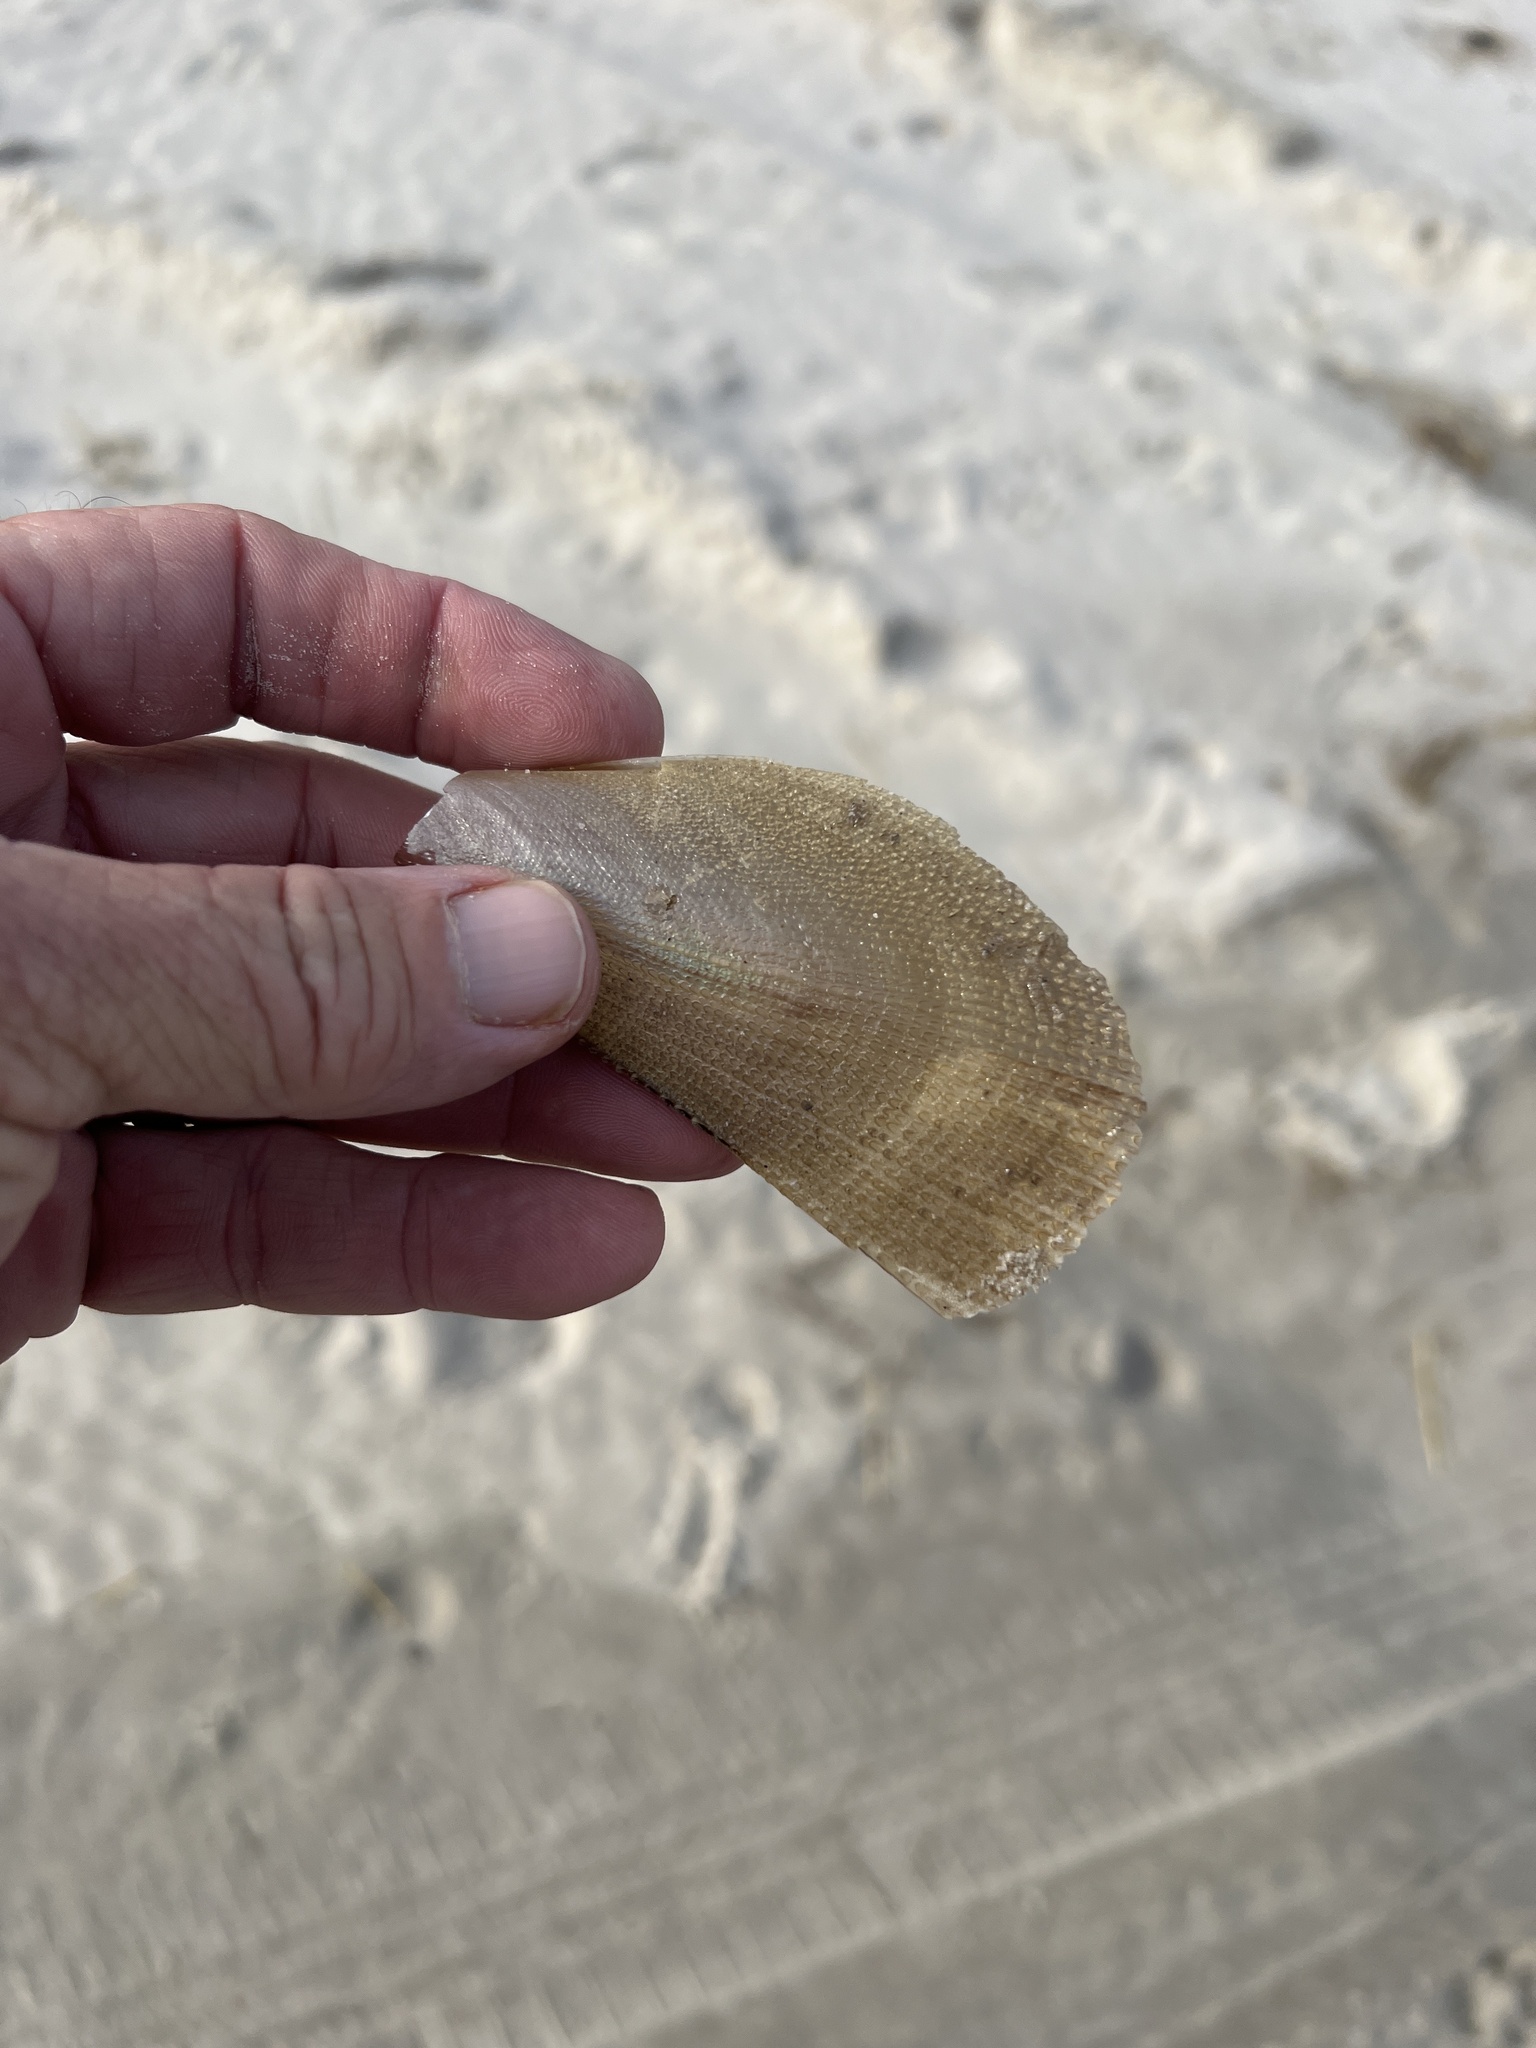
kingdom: Animalia
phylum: Mollusca
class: Bivalvia
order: Ostreida
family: Pinnidae
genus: Atrina
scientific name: Atrina serrata
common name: Saw-toothed penshell
